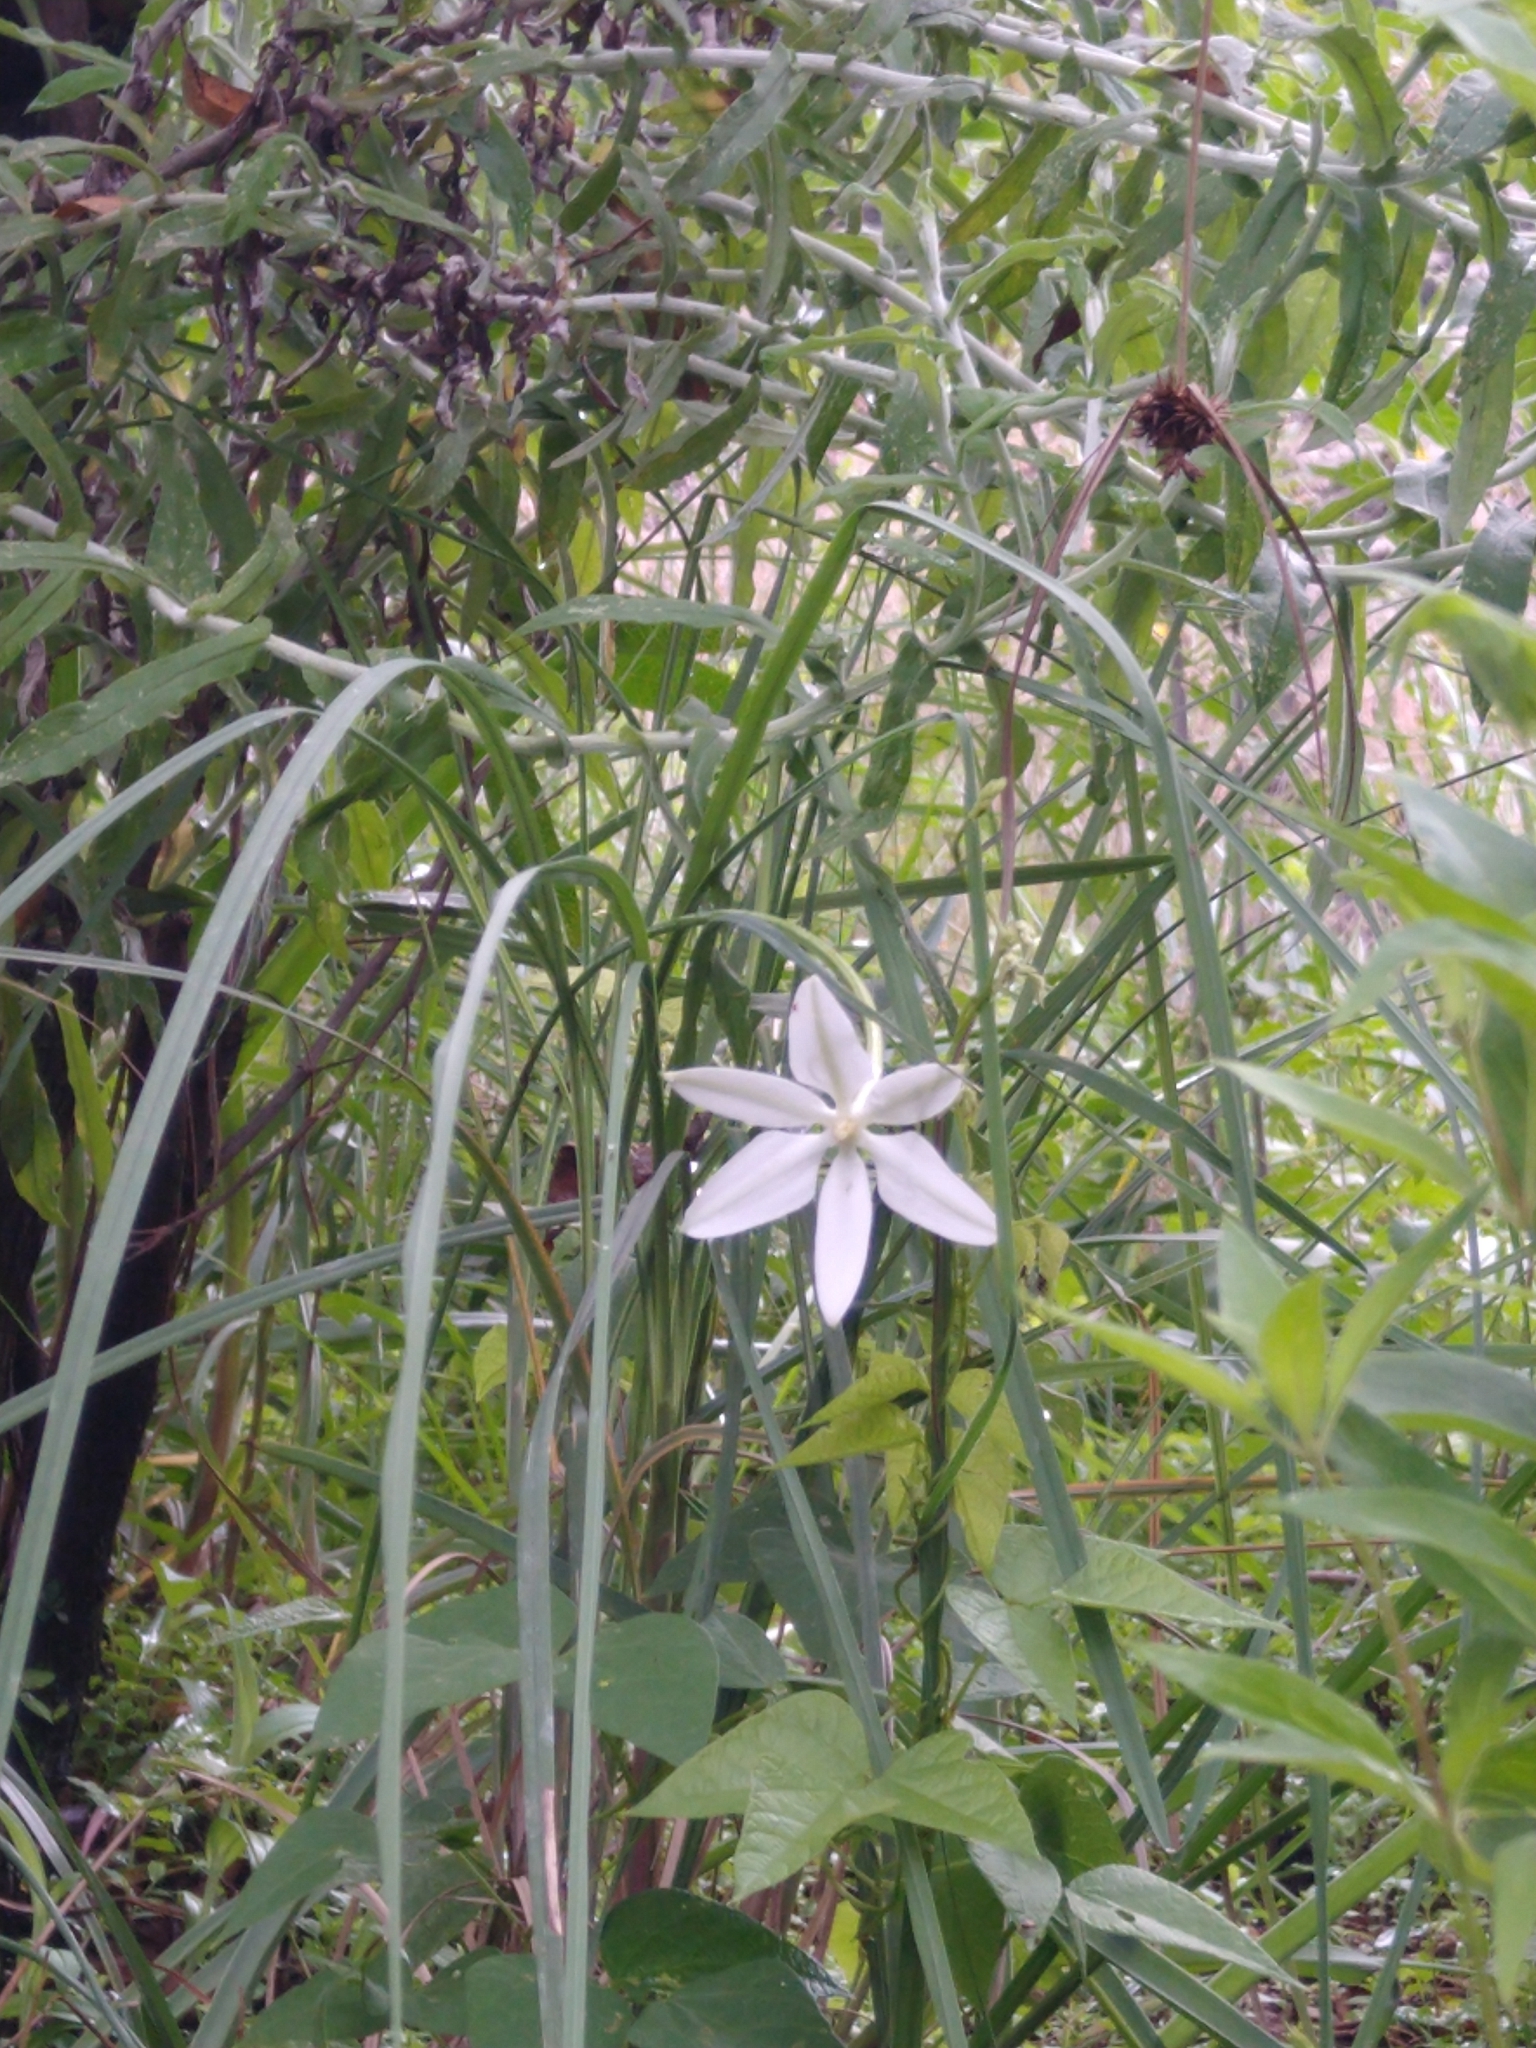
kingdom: Plantae
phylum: Tracheophyta
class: Liliopsida
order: Asparagales
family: Asparagaceae
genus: Milla
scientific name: Milla biflora
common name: Mexican-star
